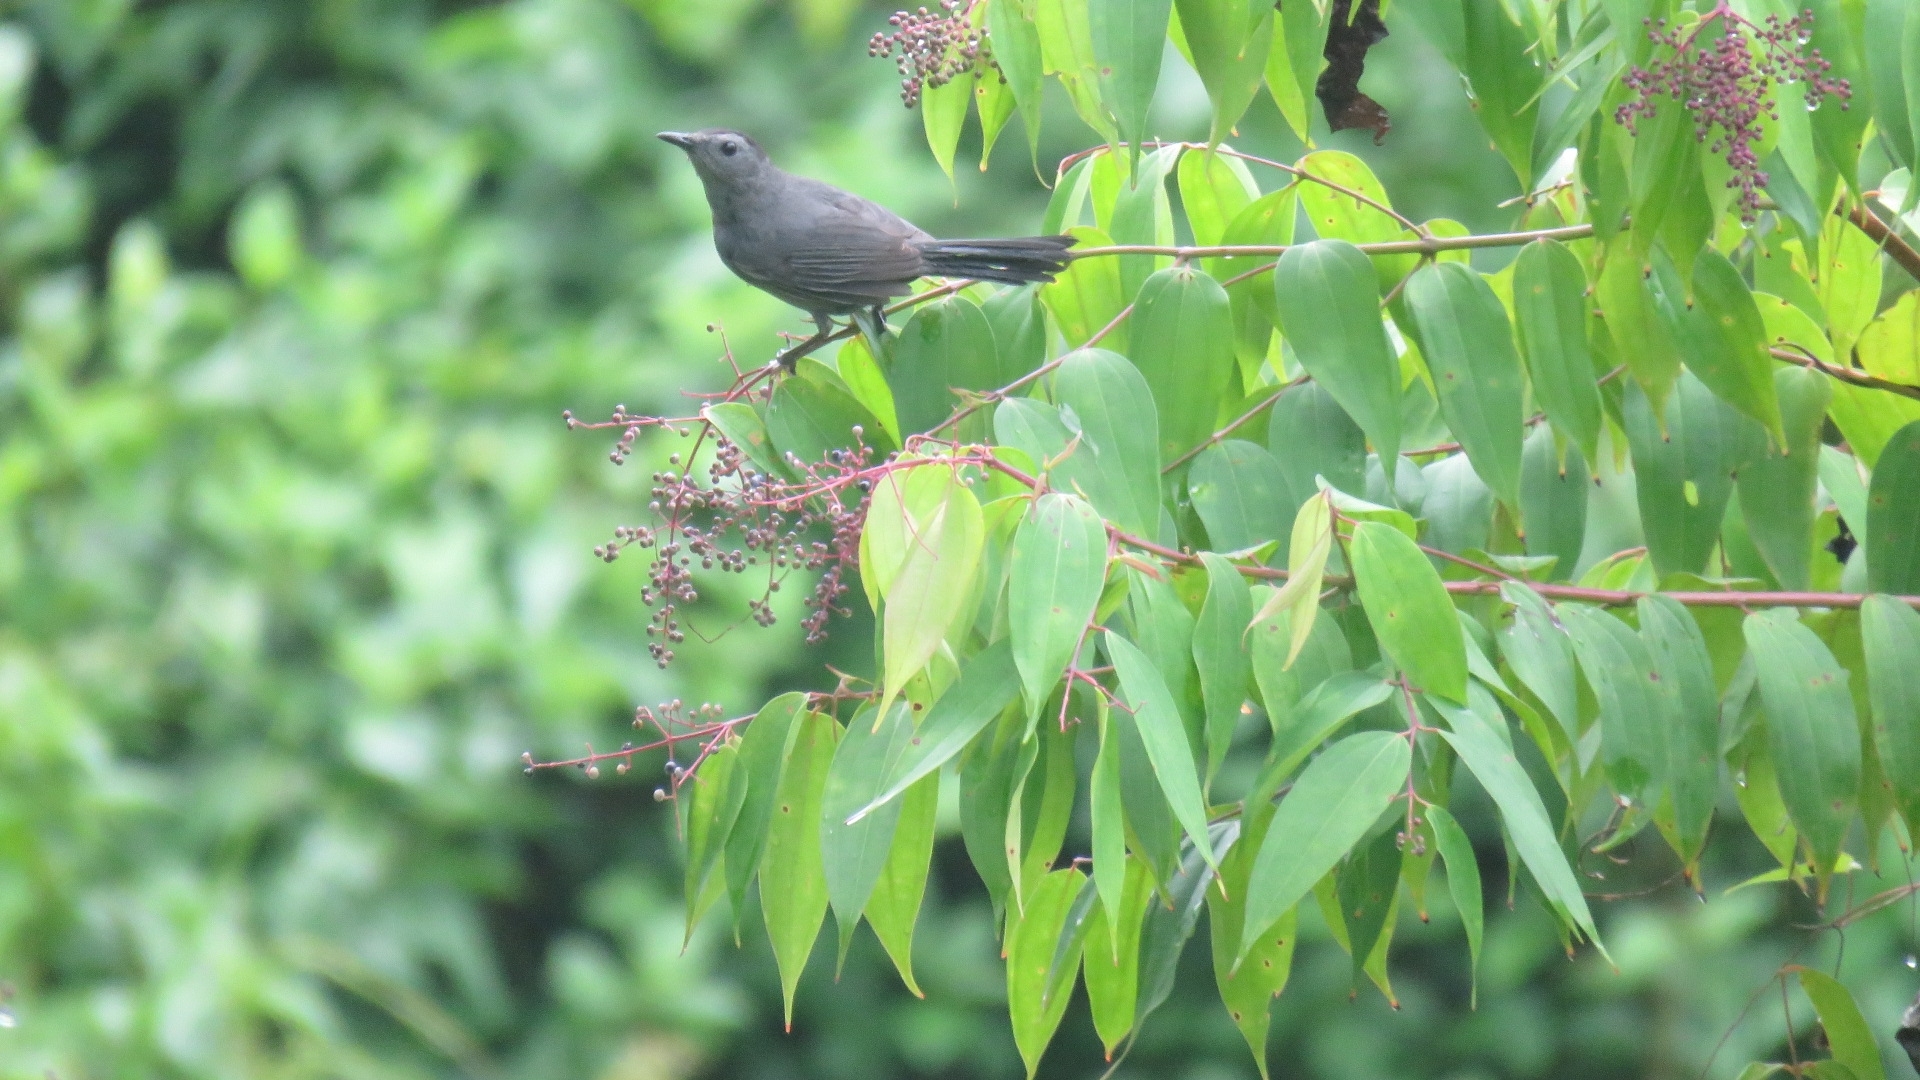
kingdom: Animalia
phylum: Chordata
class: Aves
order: Passeriformes
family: Mimidae
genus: Dumetella
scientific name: Dumetella carolinensis
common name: Gray catbird
